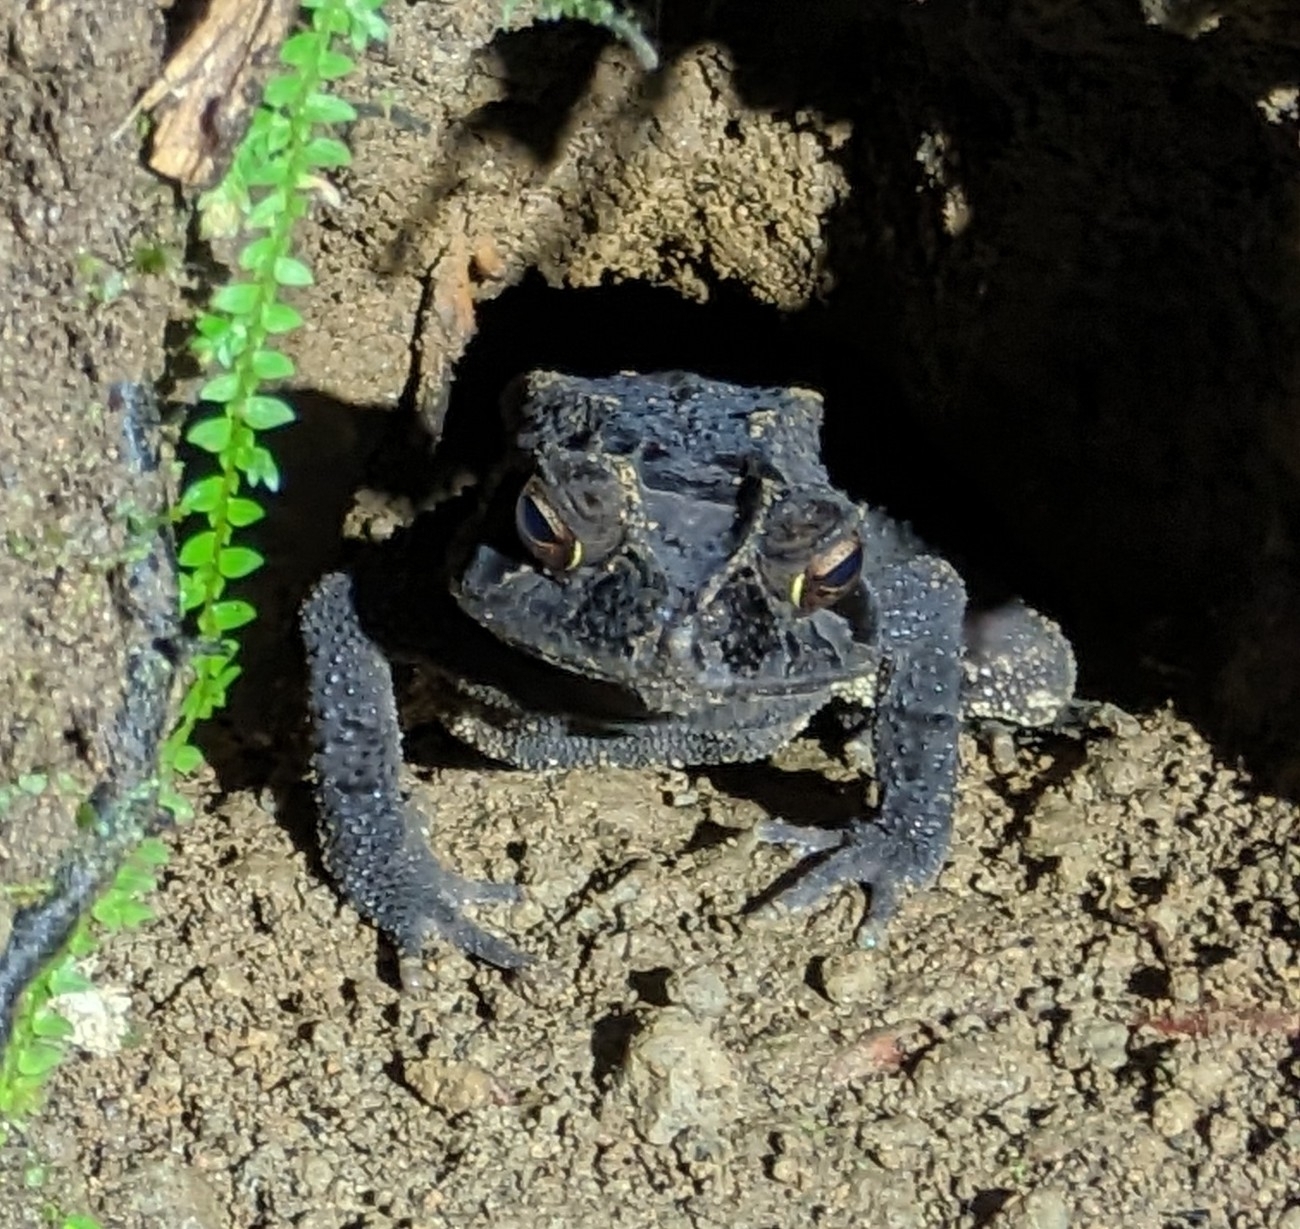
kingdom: Animalia
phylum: Chordata
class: Amphibia
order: Anura
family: Bufonidae
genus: Incilius
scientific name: Incilius melanochlorus
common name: Dark green toad
